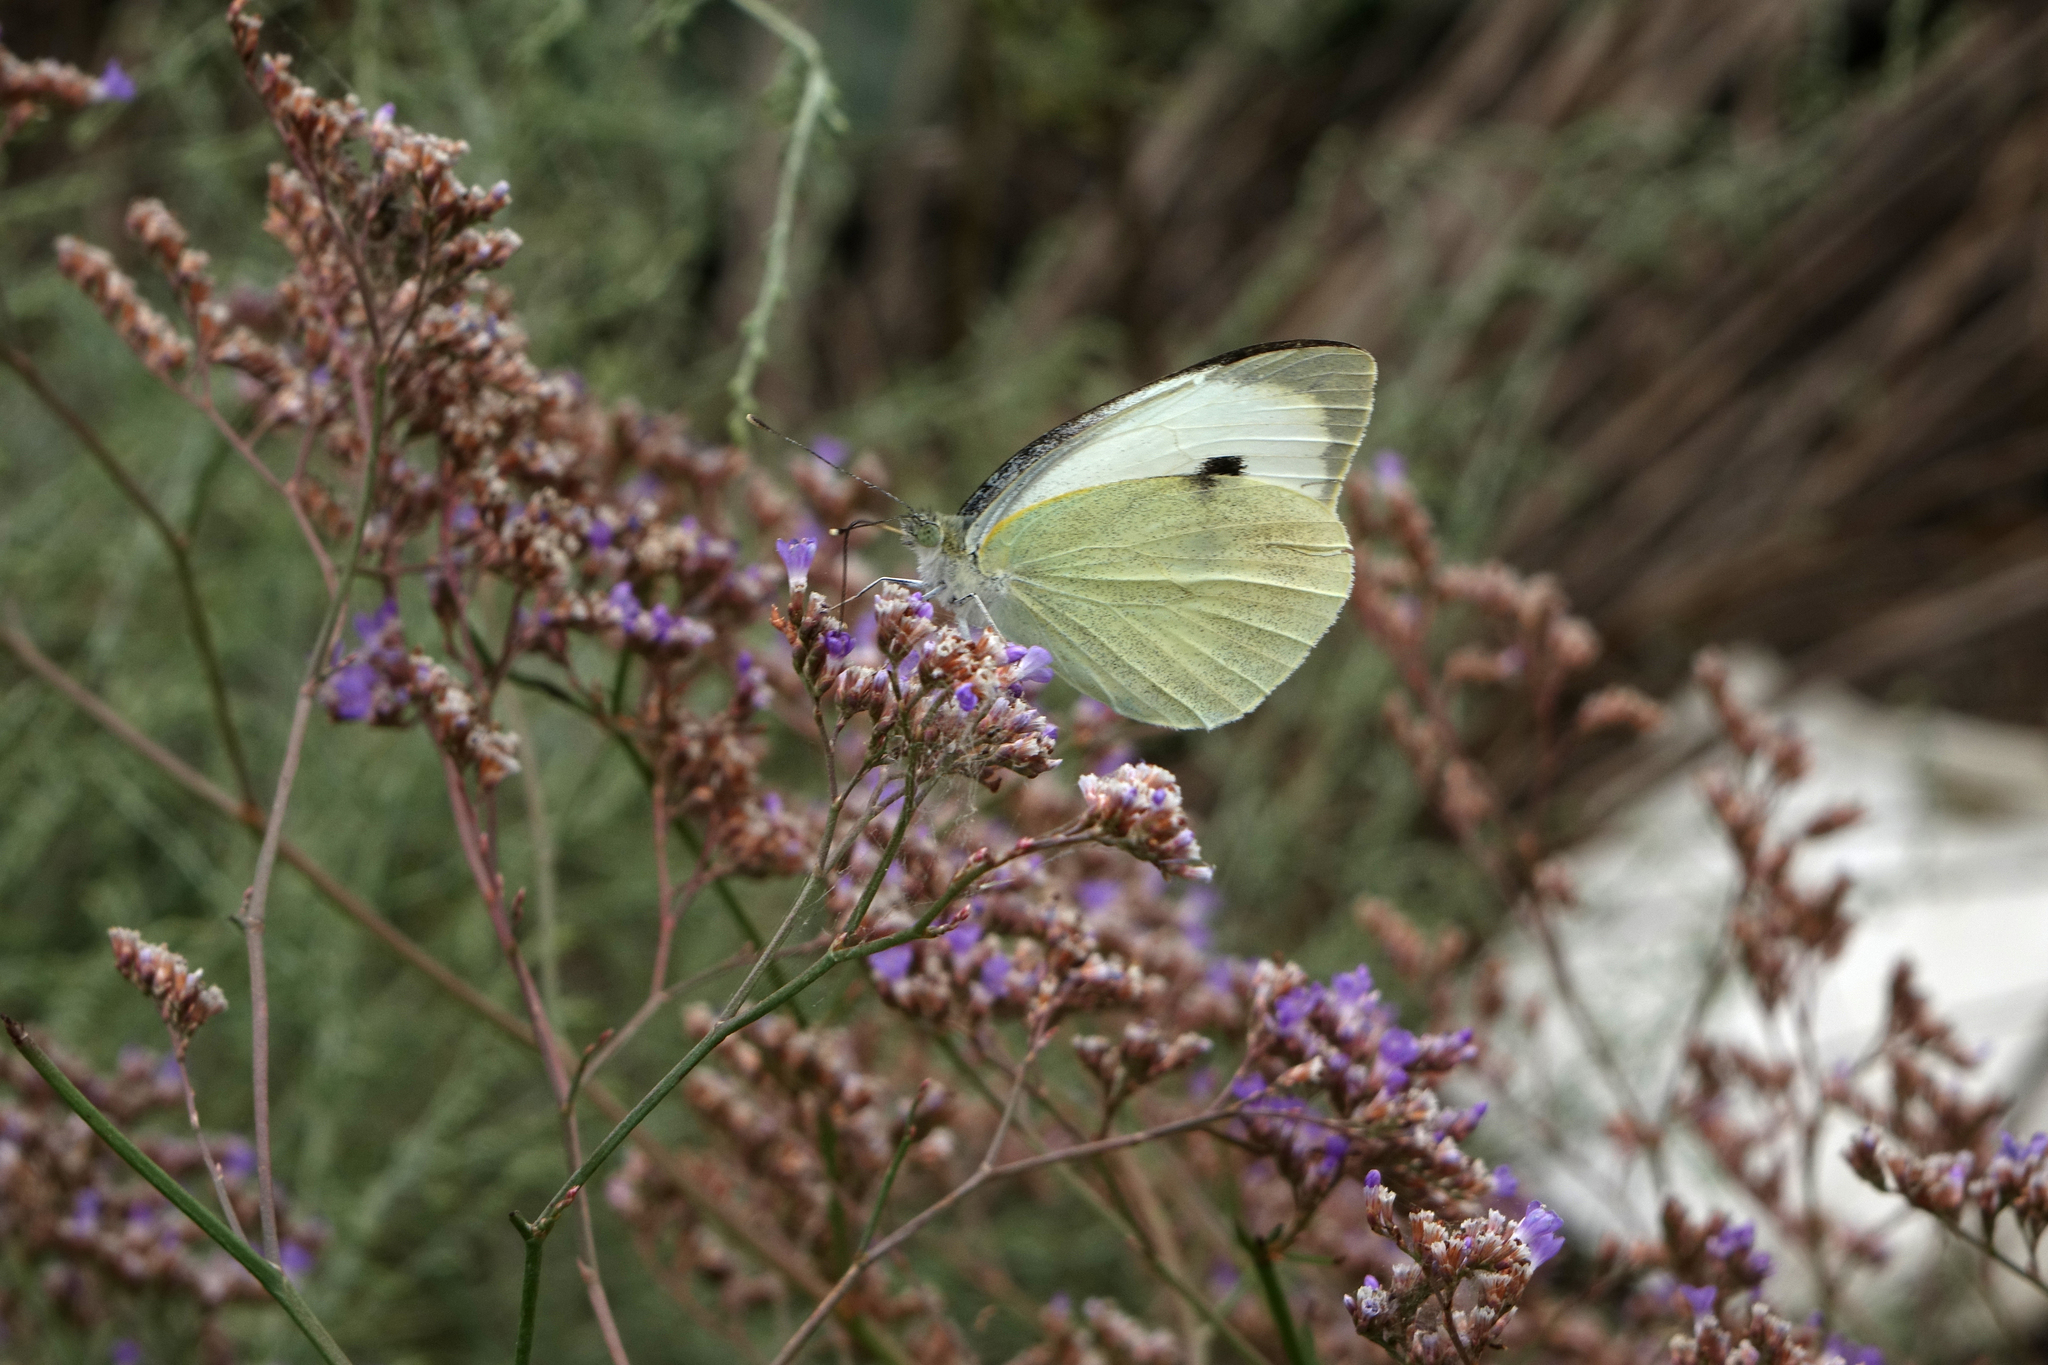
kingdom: Animalia
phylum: Arthropoda
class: Insecta
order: Lepidoptera
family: Pieridae
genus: Pieris
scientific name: Pieris brassicae
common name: Large white
